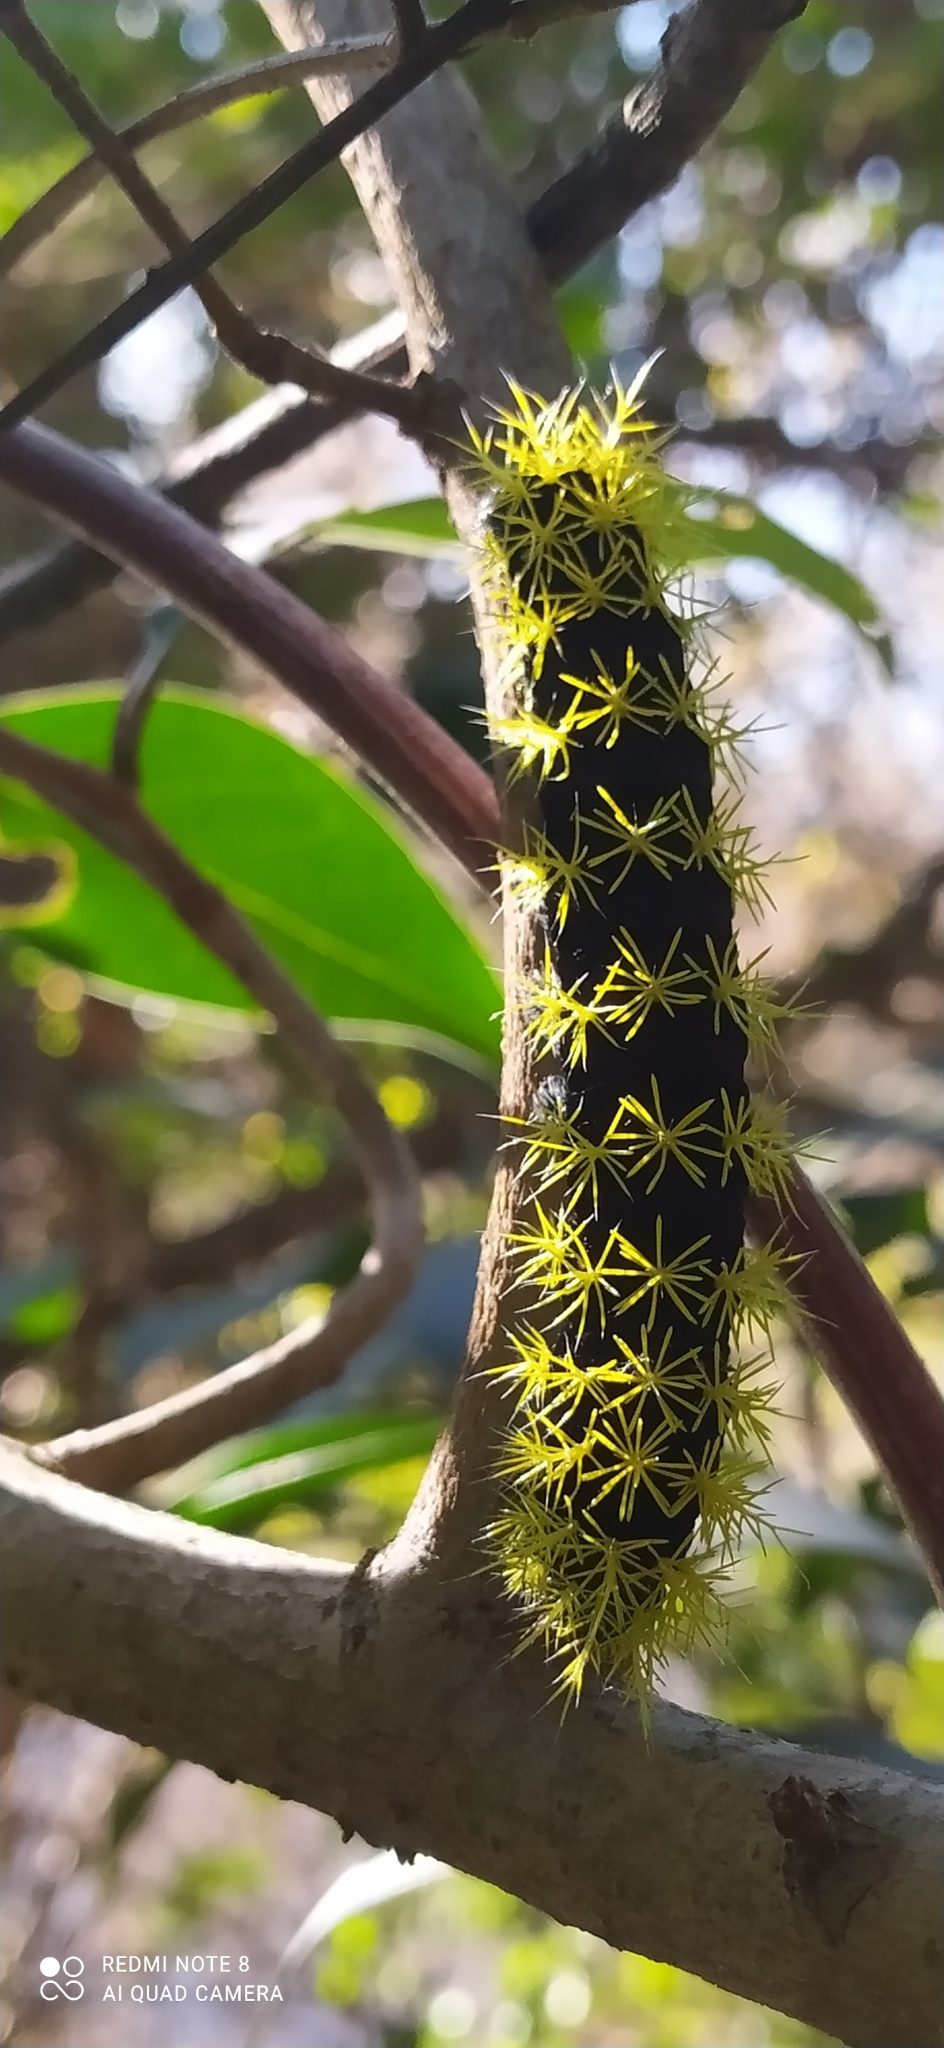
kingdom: Animalia
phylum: Arthropoda
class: Insecta
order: Lepidoptera
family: Saturniidae
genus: Leucanella
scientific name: Leucanella viridescens
